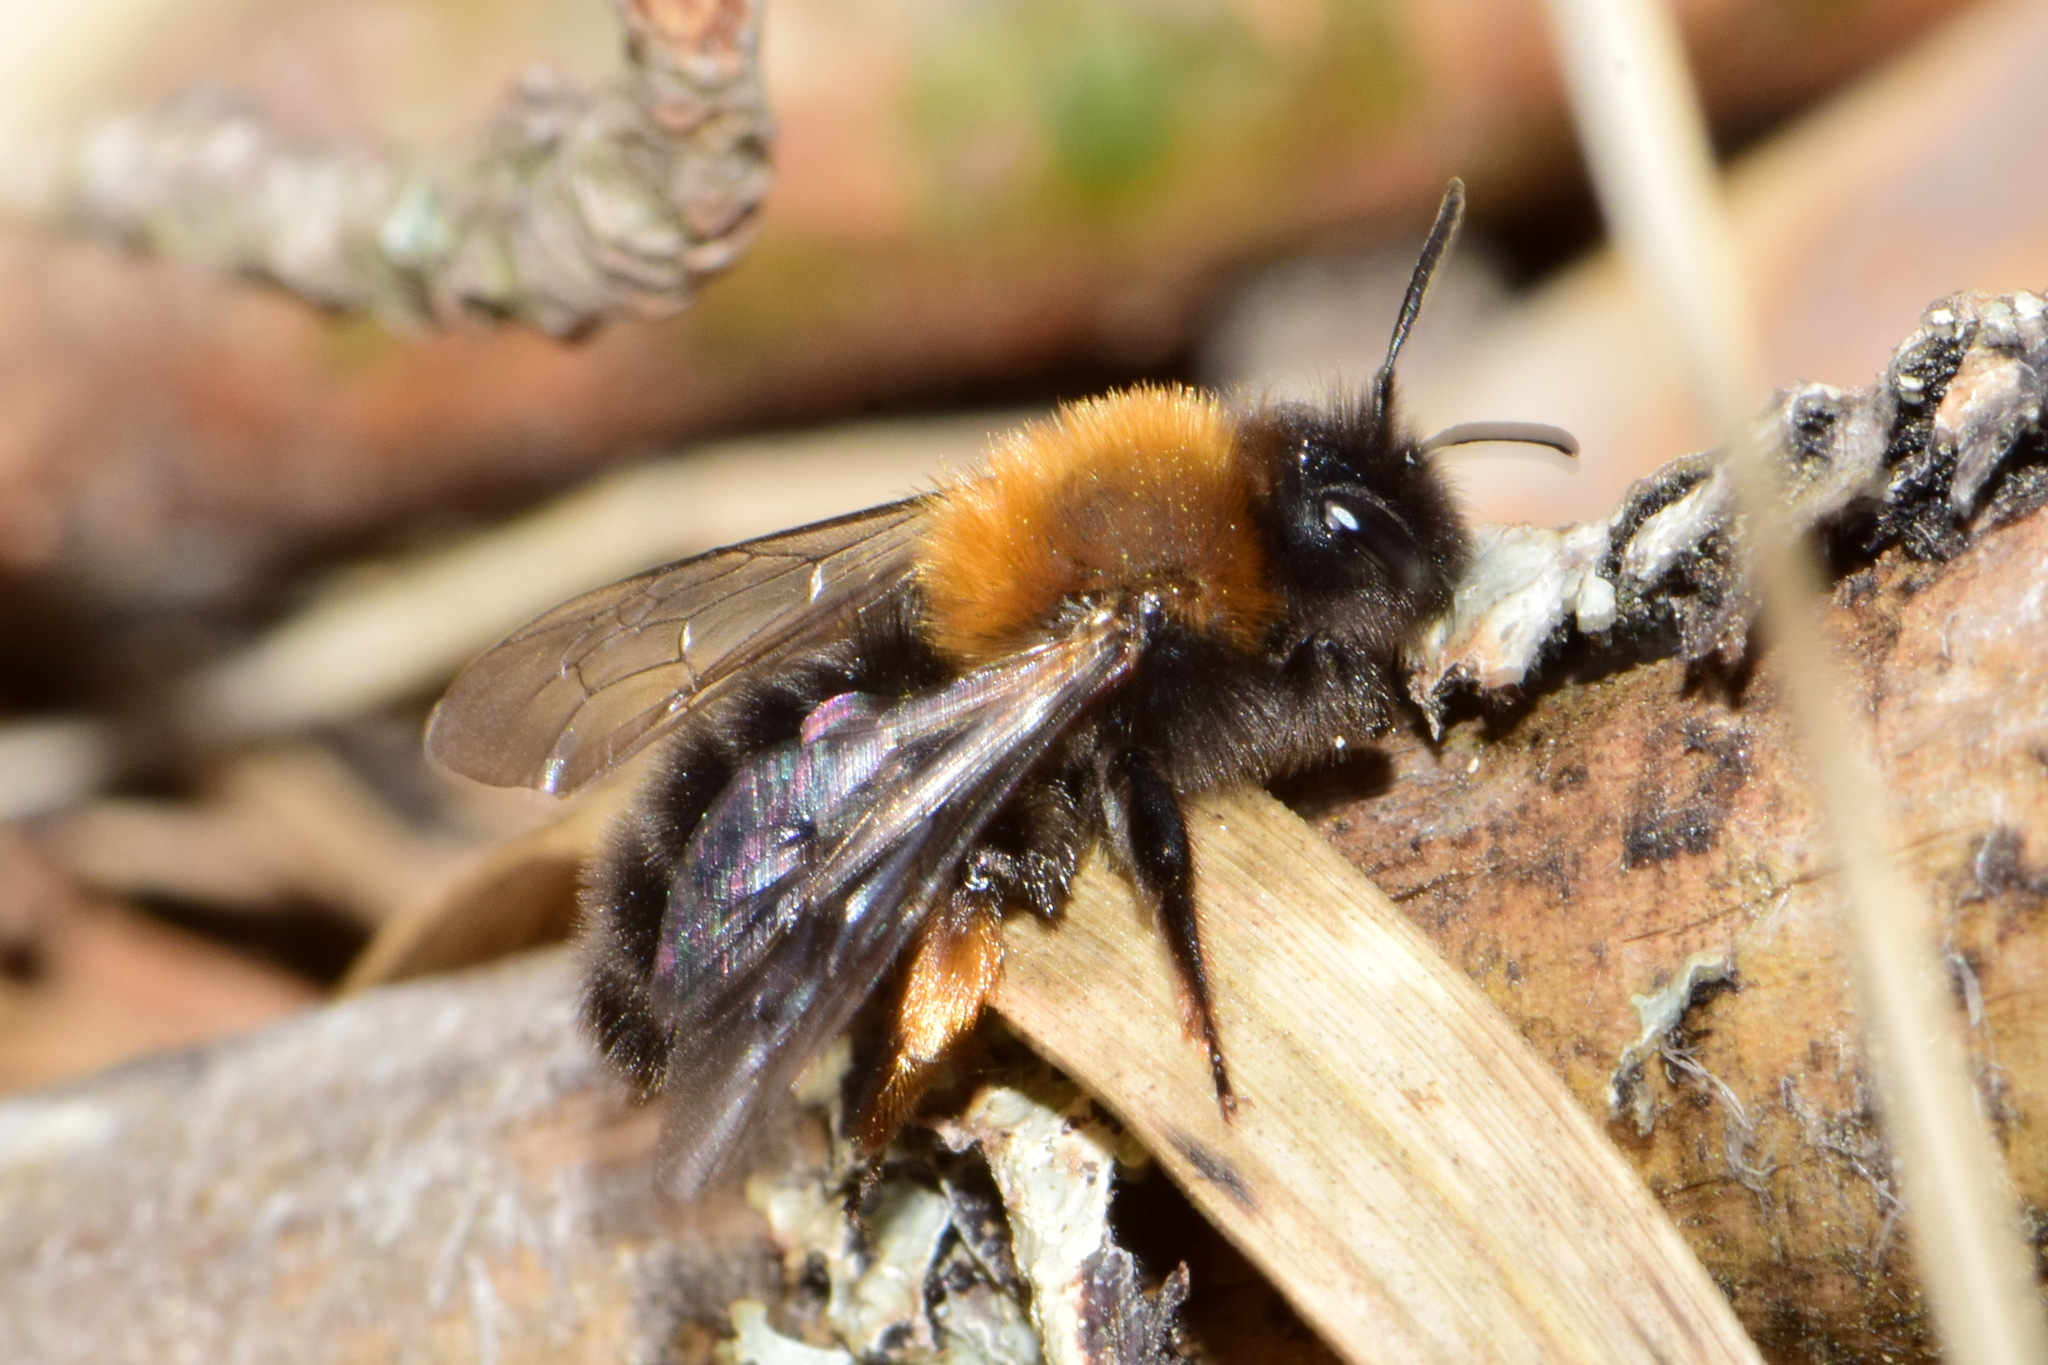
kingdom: Animalia
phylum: Arthropoda
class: Insecta
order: Hymenoptera
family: Andrenidae
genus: Andrena
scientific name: Andrena clarkella
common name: Clarke's mining bee
